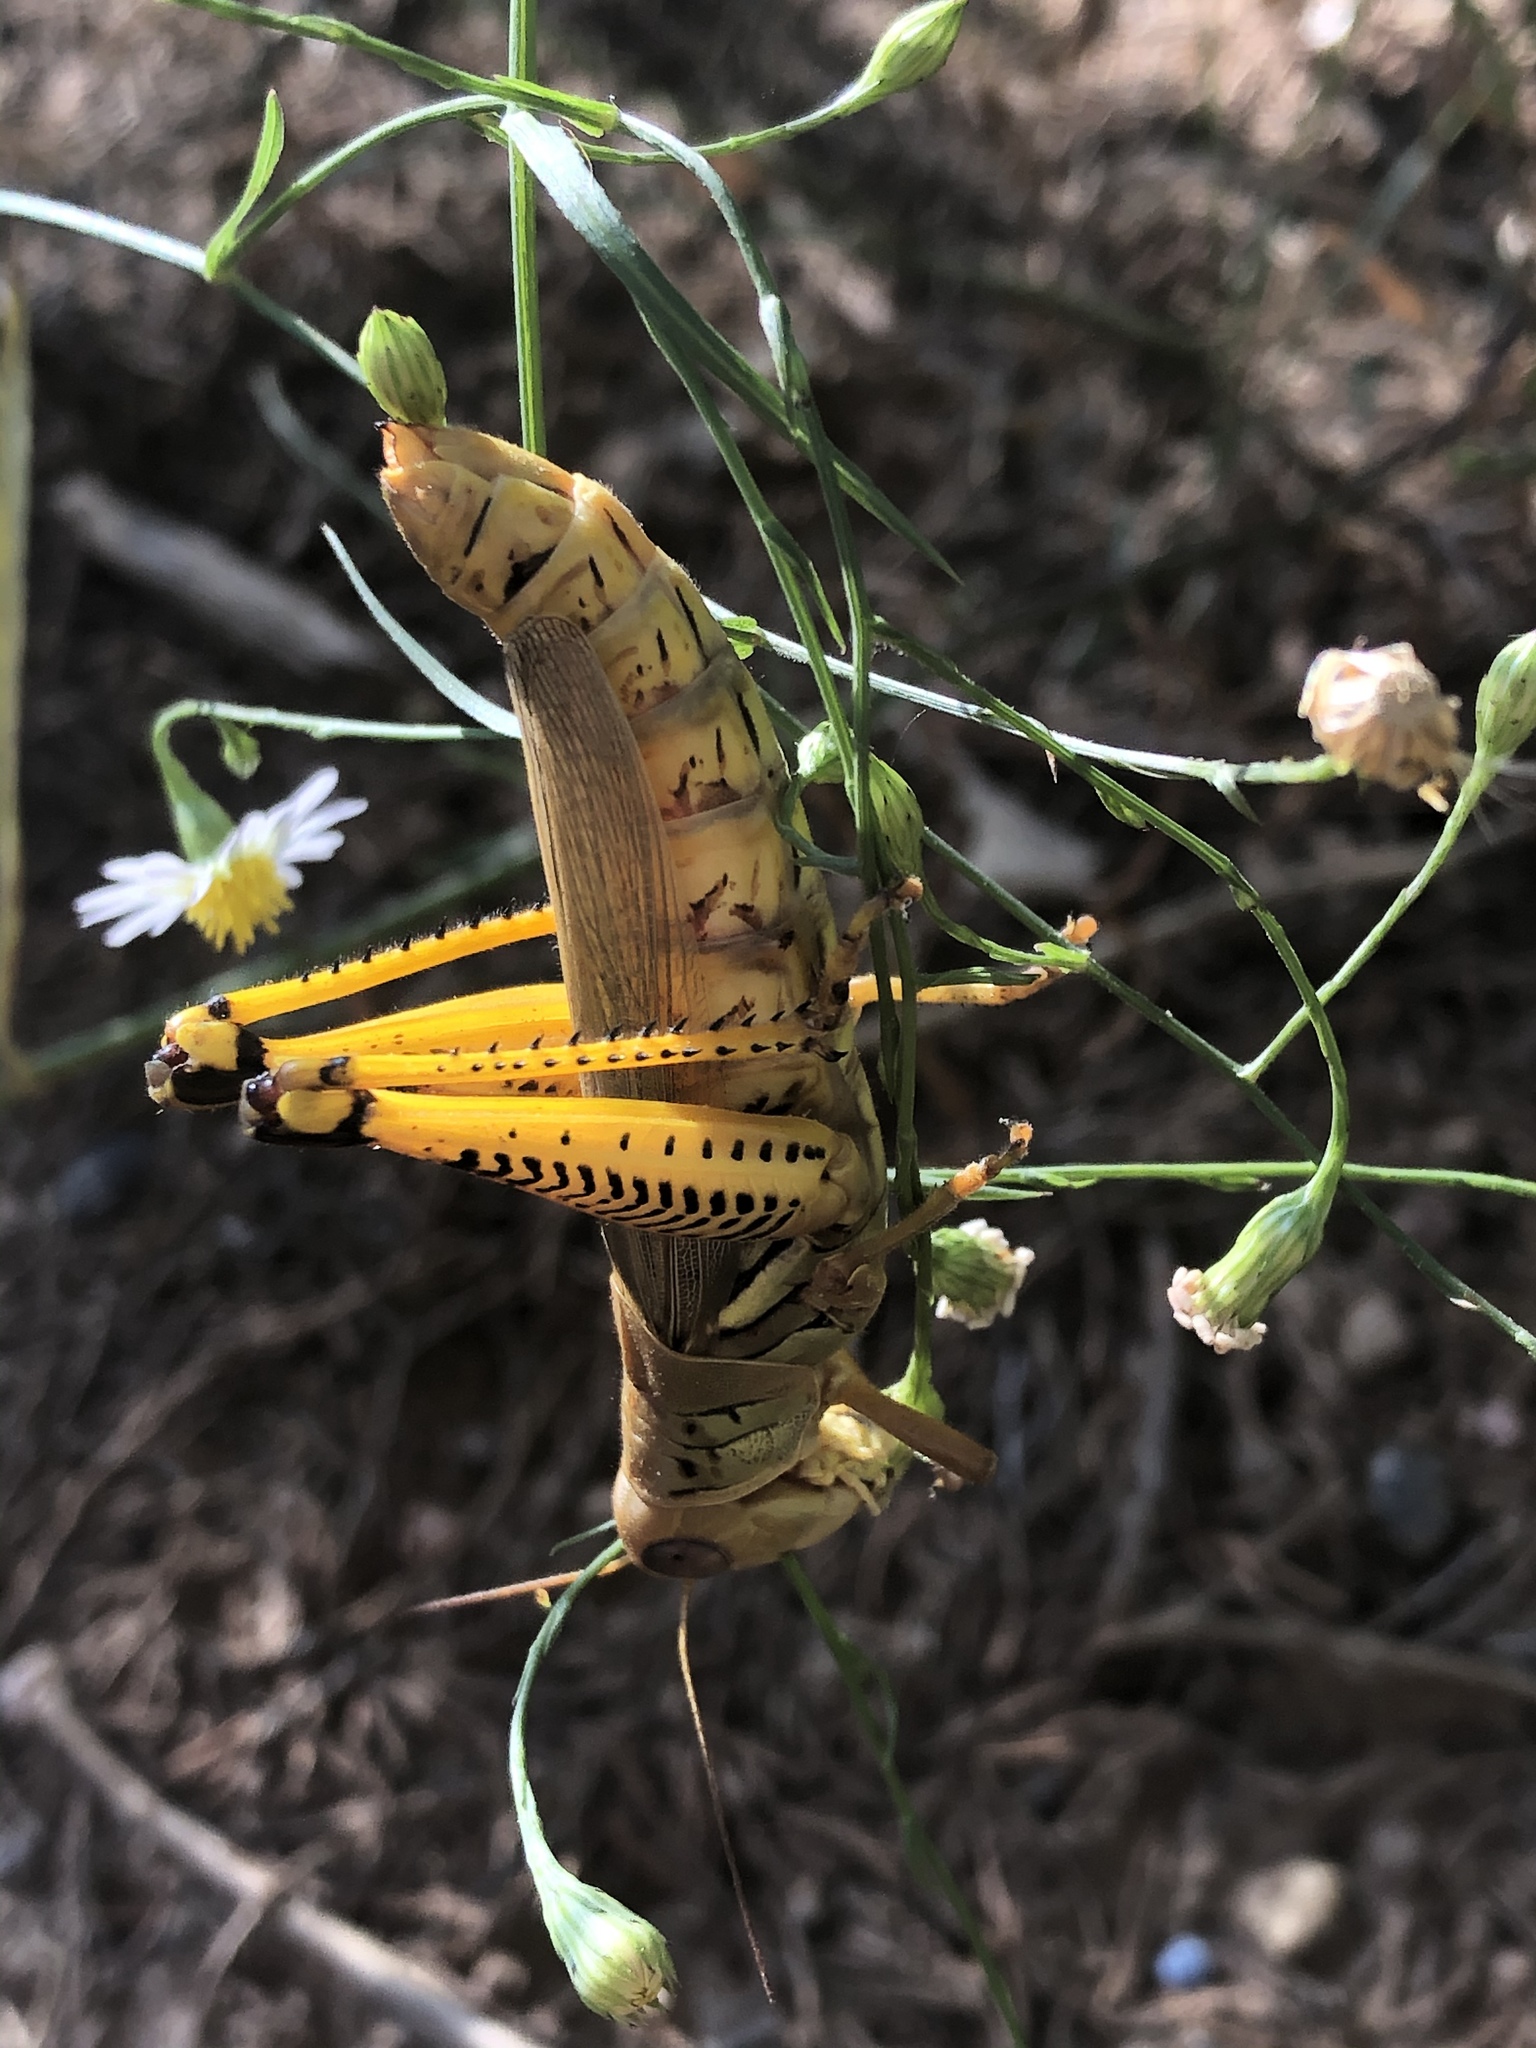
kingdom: Animalia
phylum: Arthropoda
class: Insecta
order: Orthoptera
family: Acrididae
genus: Melanoplus
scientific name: Melanoplus differentialis
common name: Differential grasshopper
